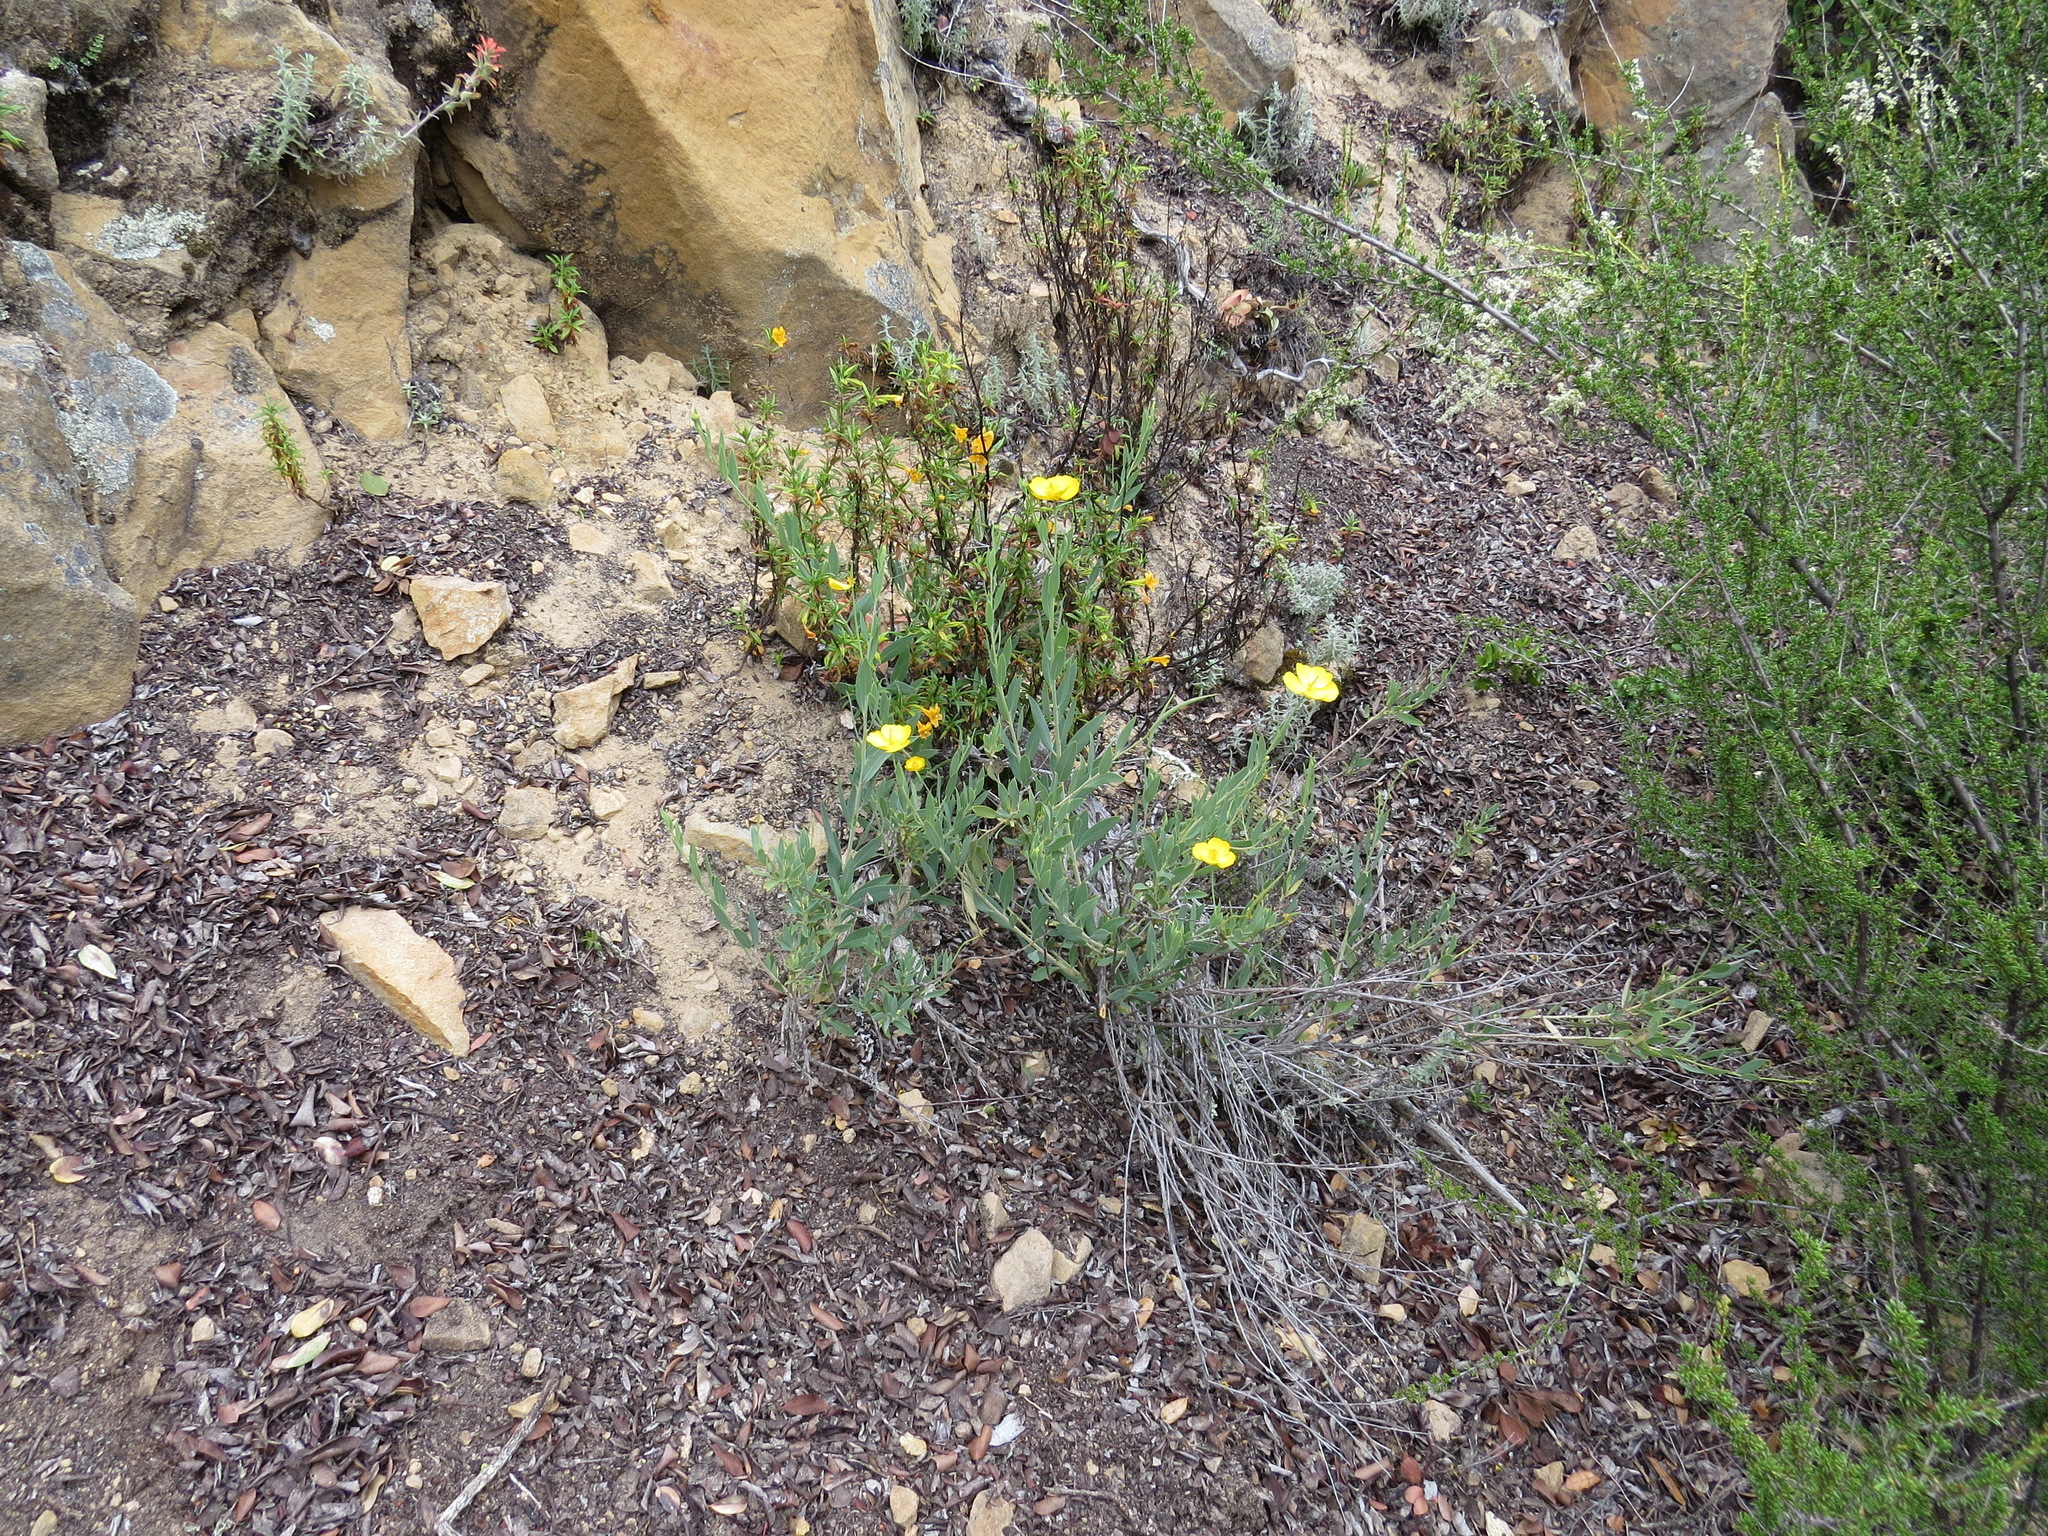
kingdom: Plantae
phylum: Tracheophyta
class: Magnoliopsida
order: Ranunculales
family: Papaveraceae
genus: Dendromecon
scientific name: Dendromecon rigida
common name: Tree poppy
